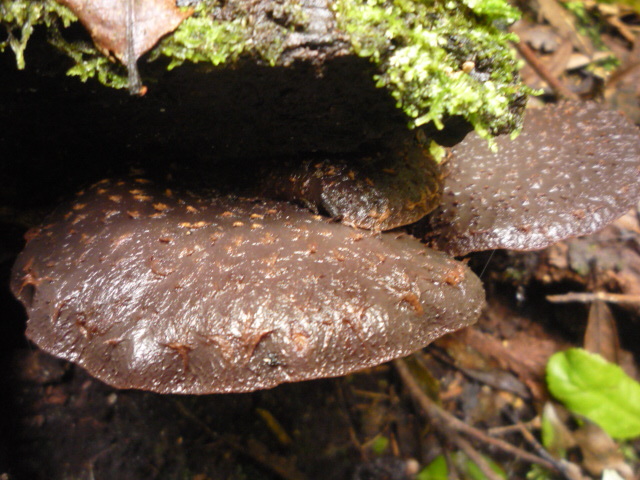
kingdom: Fungi
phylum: Basidiomycota
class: Agaricomycetes
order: Agaricales
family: Omphalotaceae
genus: Lentinula
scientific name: Lentinula novae-zelandiae
